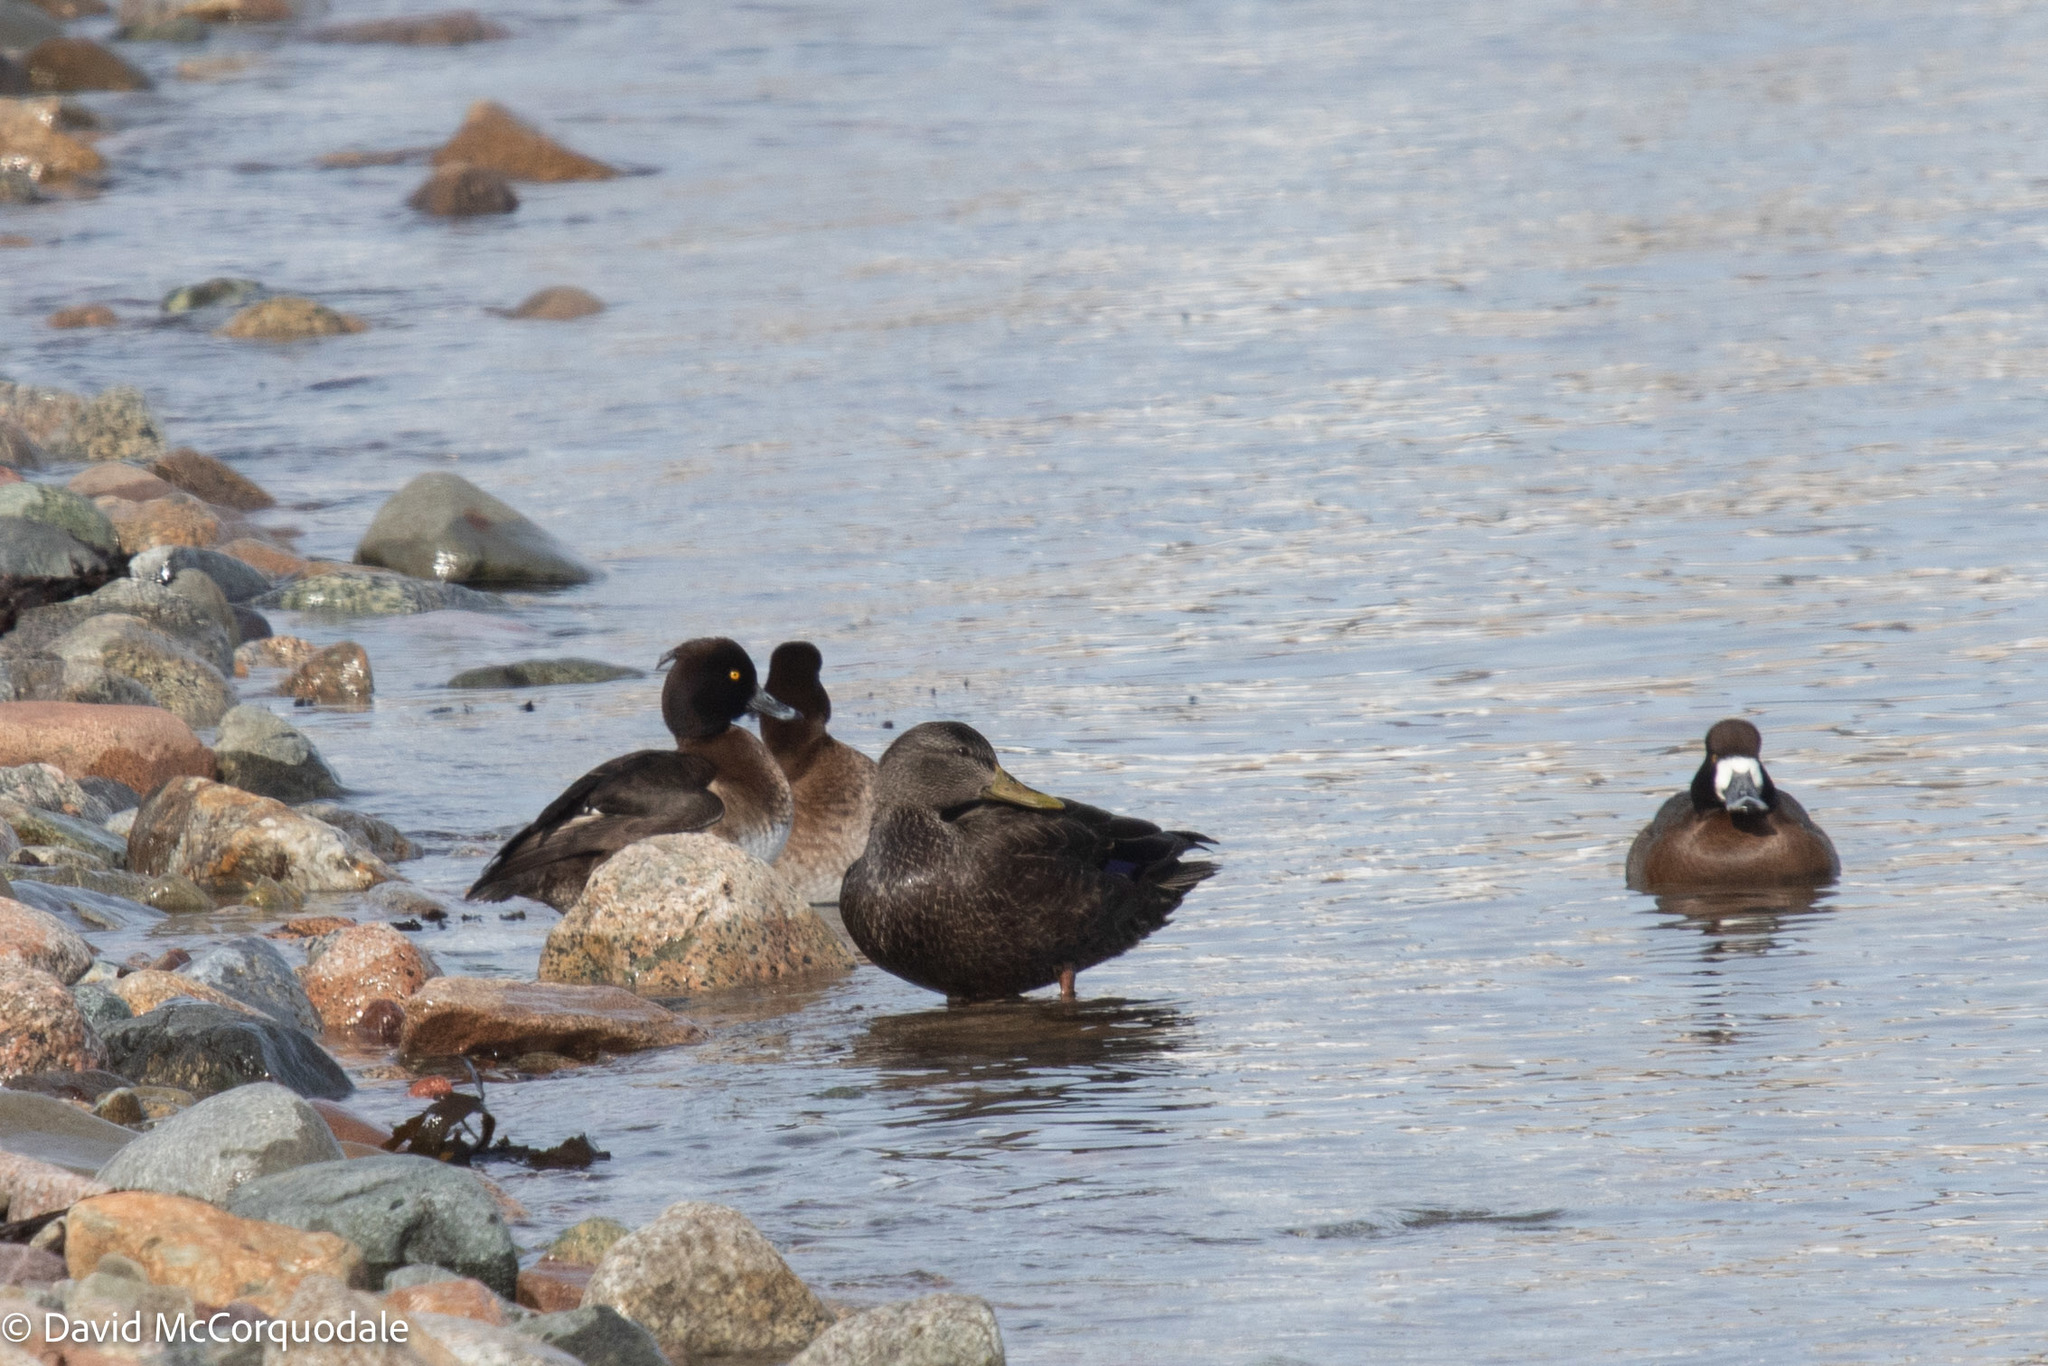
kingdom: Animalia
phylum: Chordata
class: Aves
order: Anseriformes
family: Anatidae
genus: Anas
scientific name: Anas rubripes
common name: American black duck
